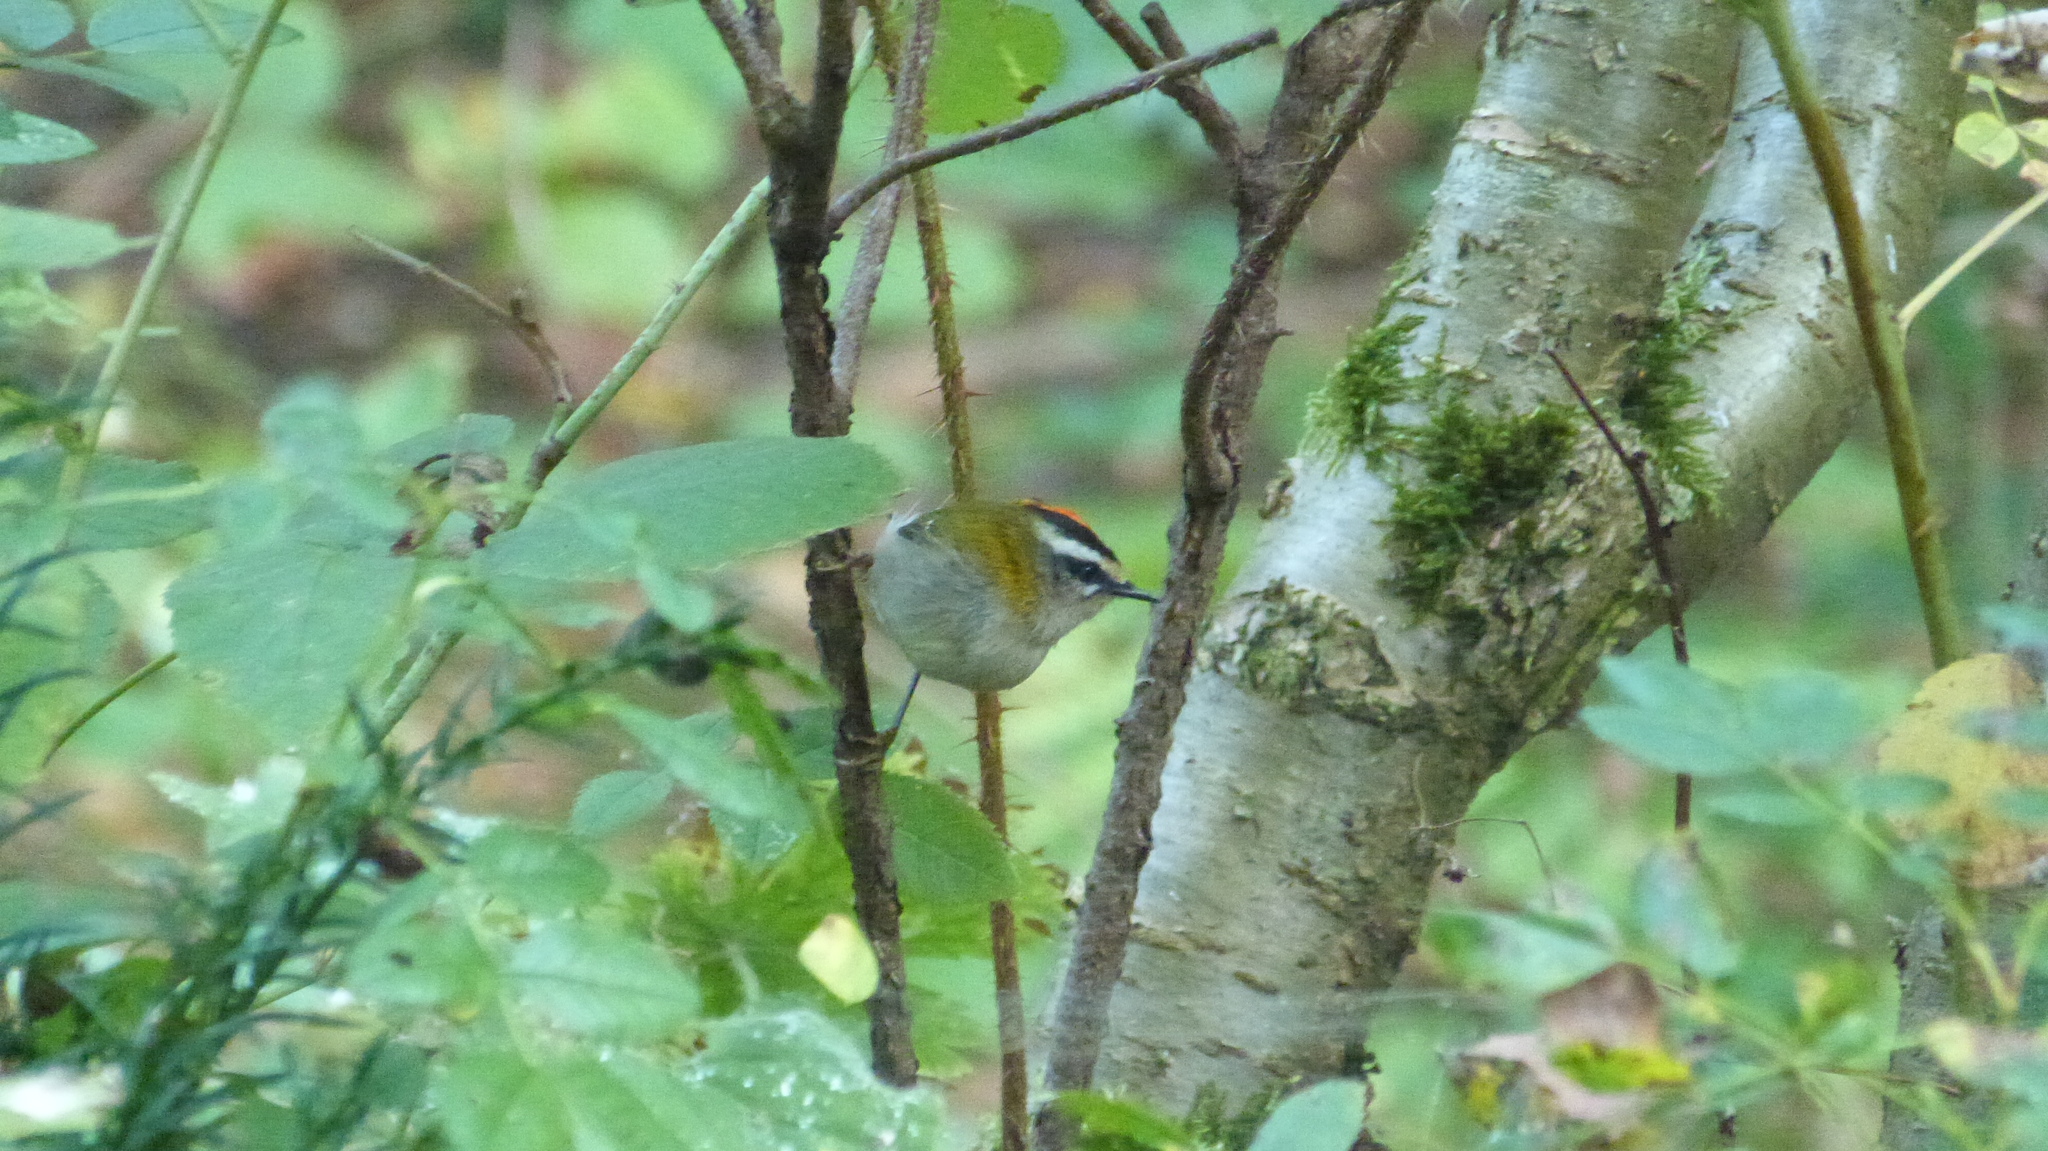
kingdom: Animalia
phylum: Chordata
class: Aves
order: Passeriformes
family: Regulidae
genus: Regulus
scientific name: Regulus ignicapilla
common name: Firecrest
